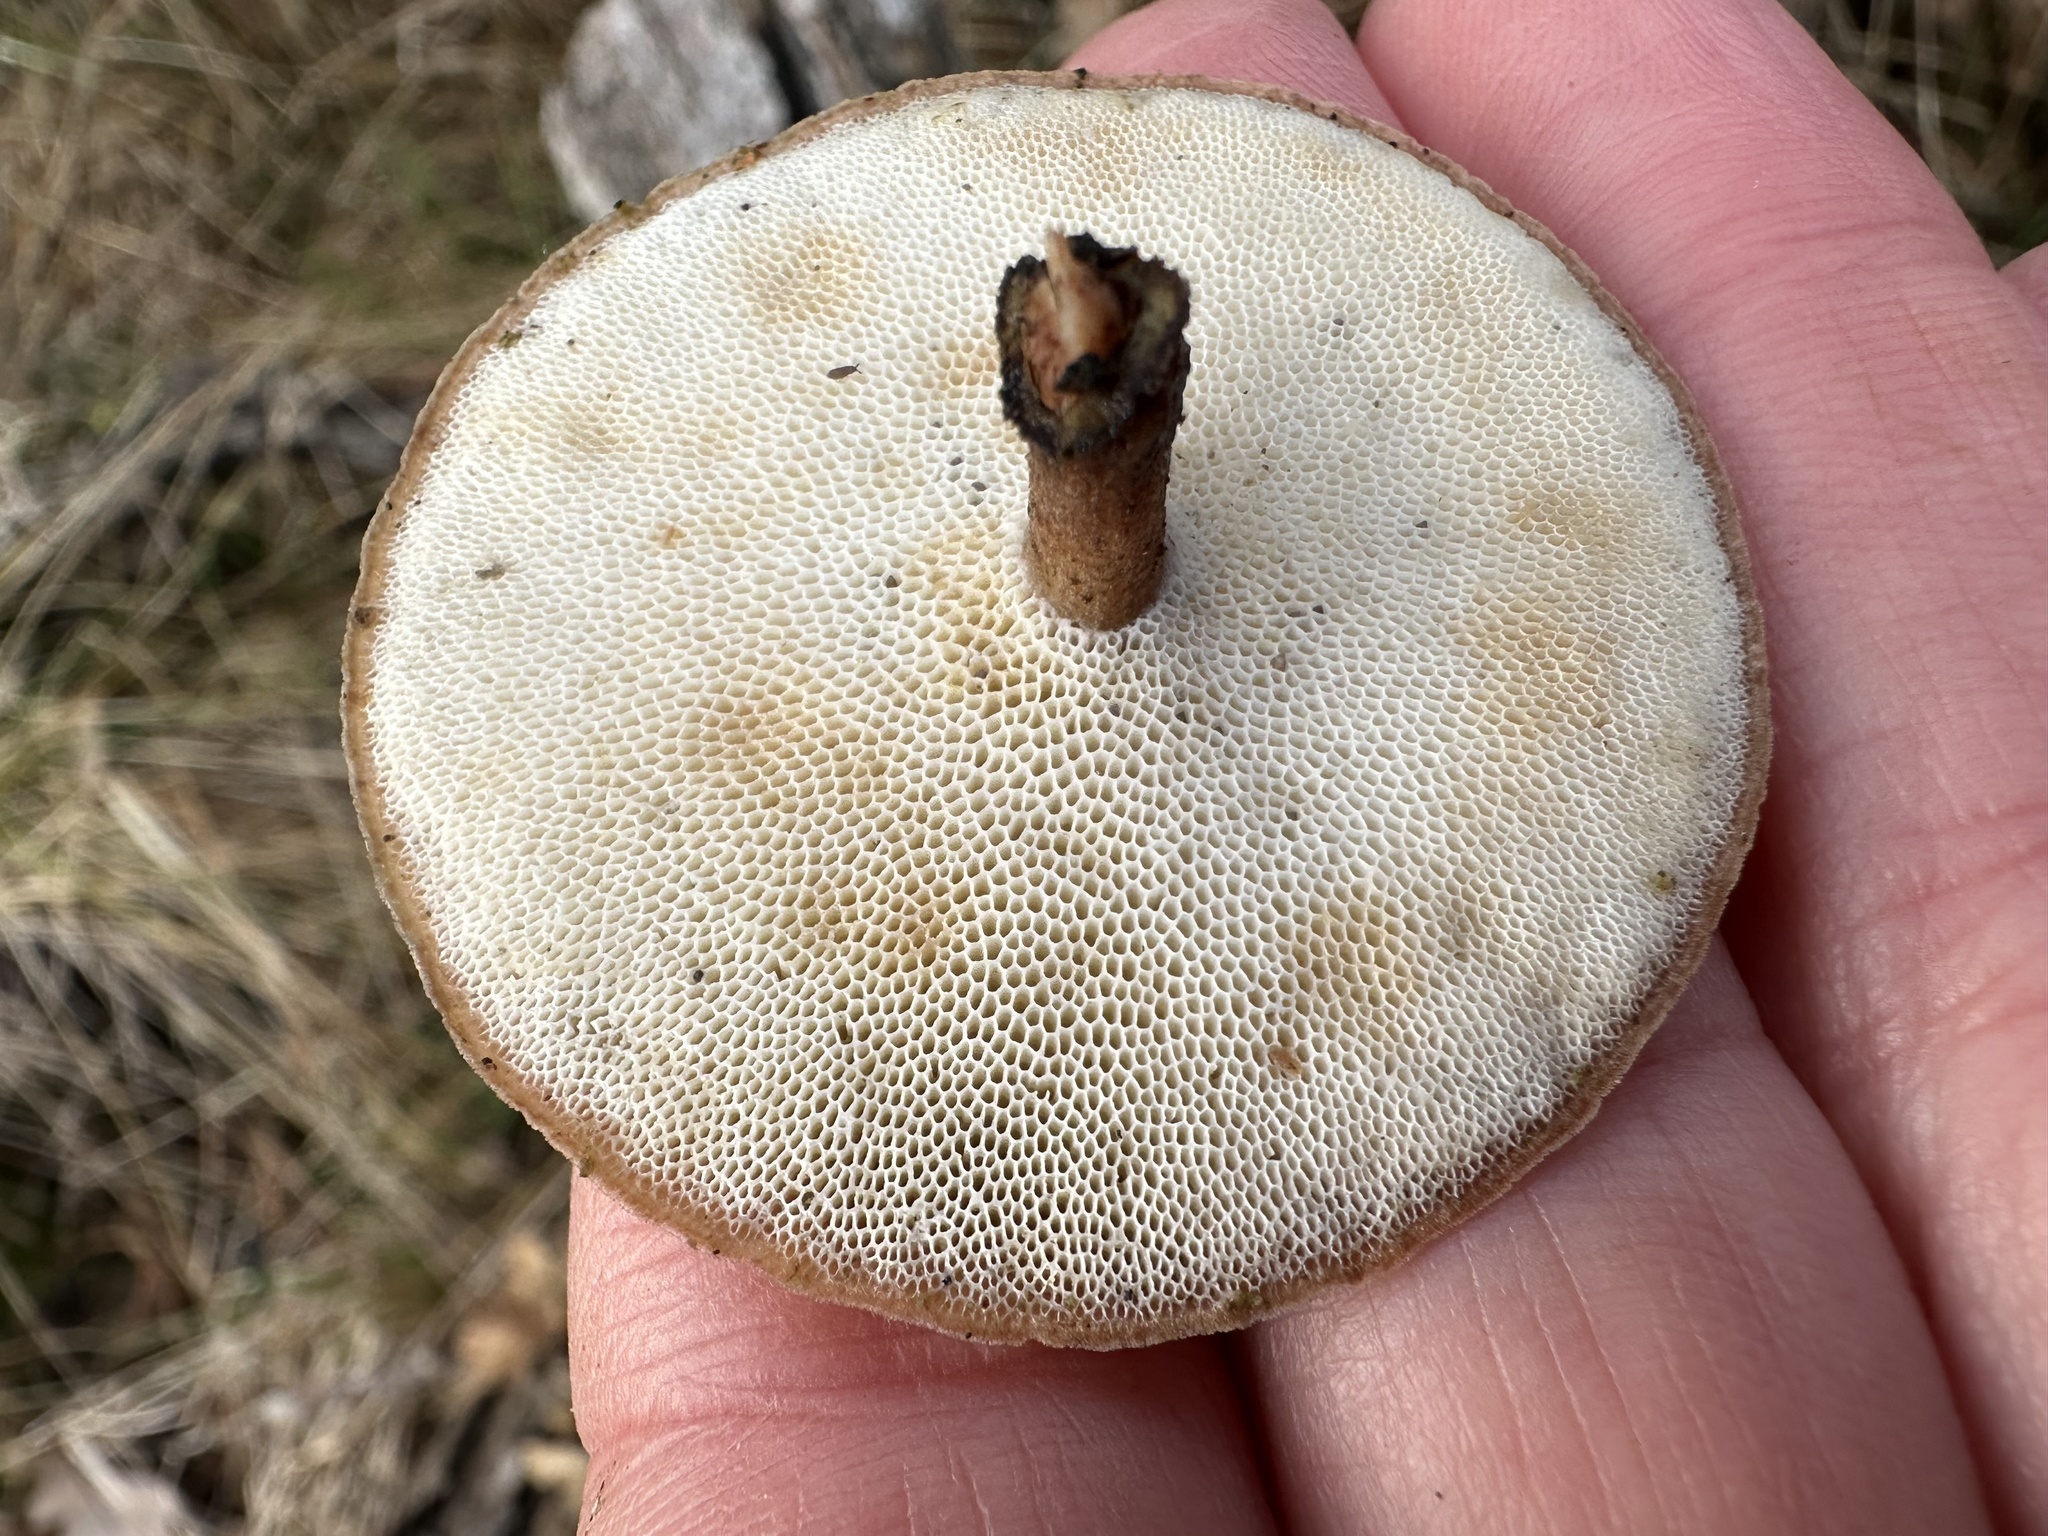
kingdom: Fungi
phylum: Basidiomycota
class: Agaricomycetes
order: Polyporales
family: Polyporaceae
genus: Lentinus
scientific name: Lentinus brumalis
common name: Winter polypore
